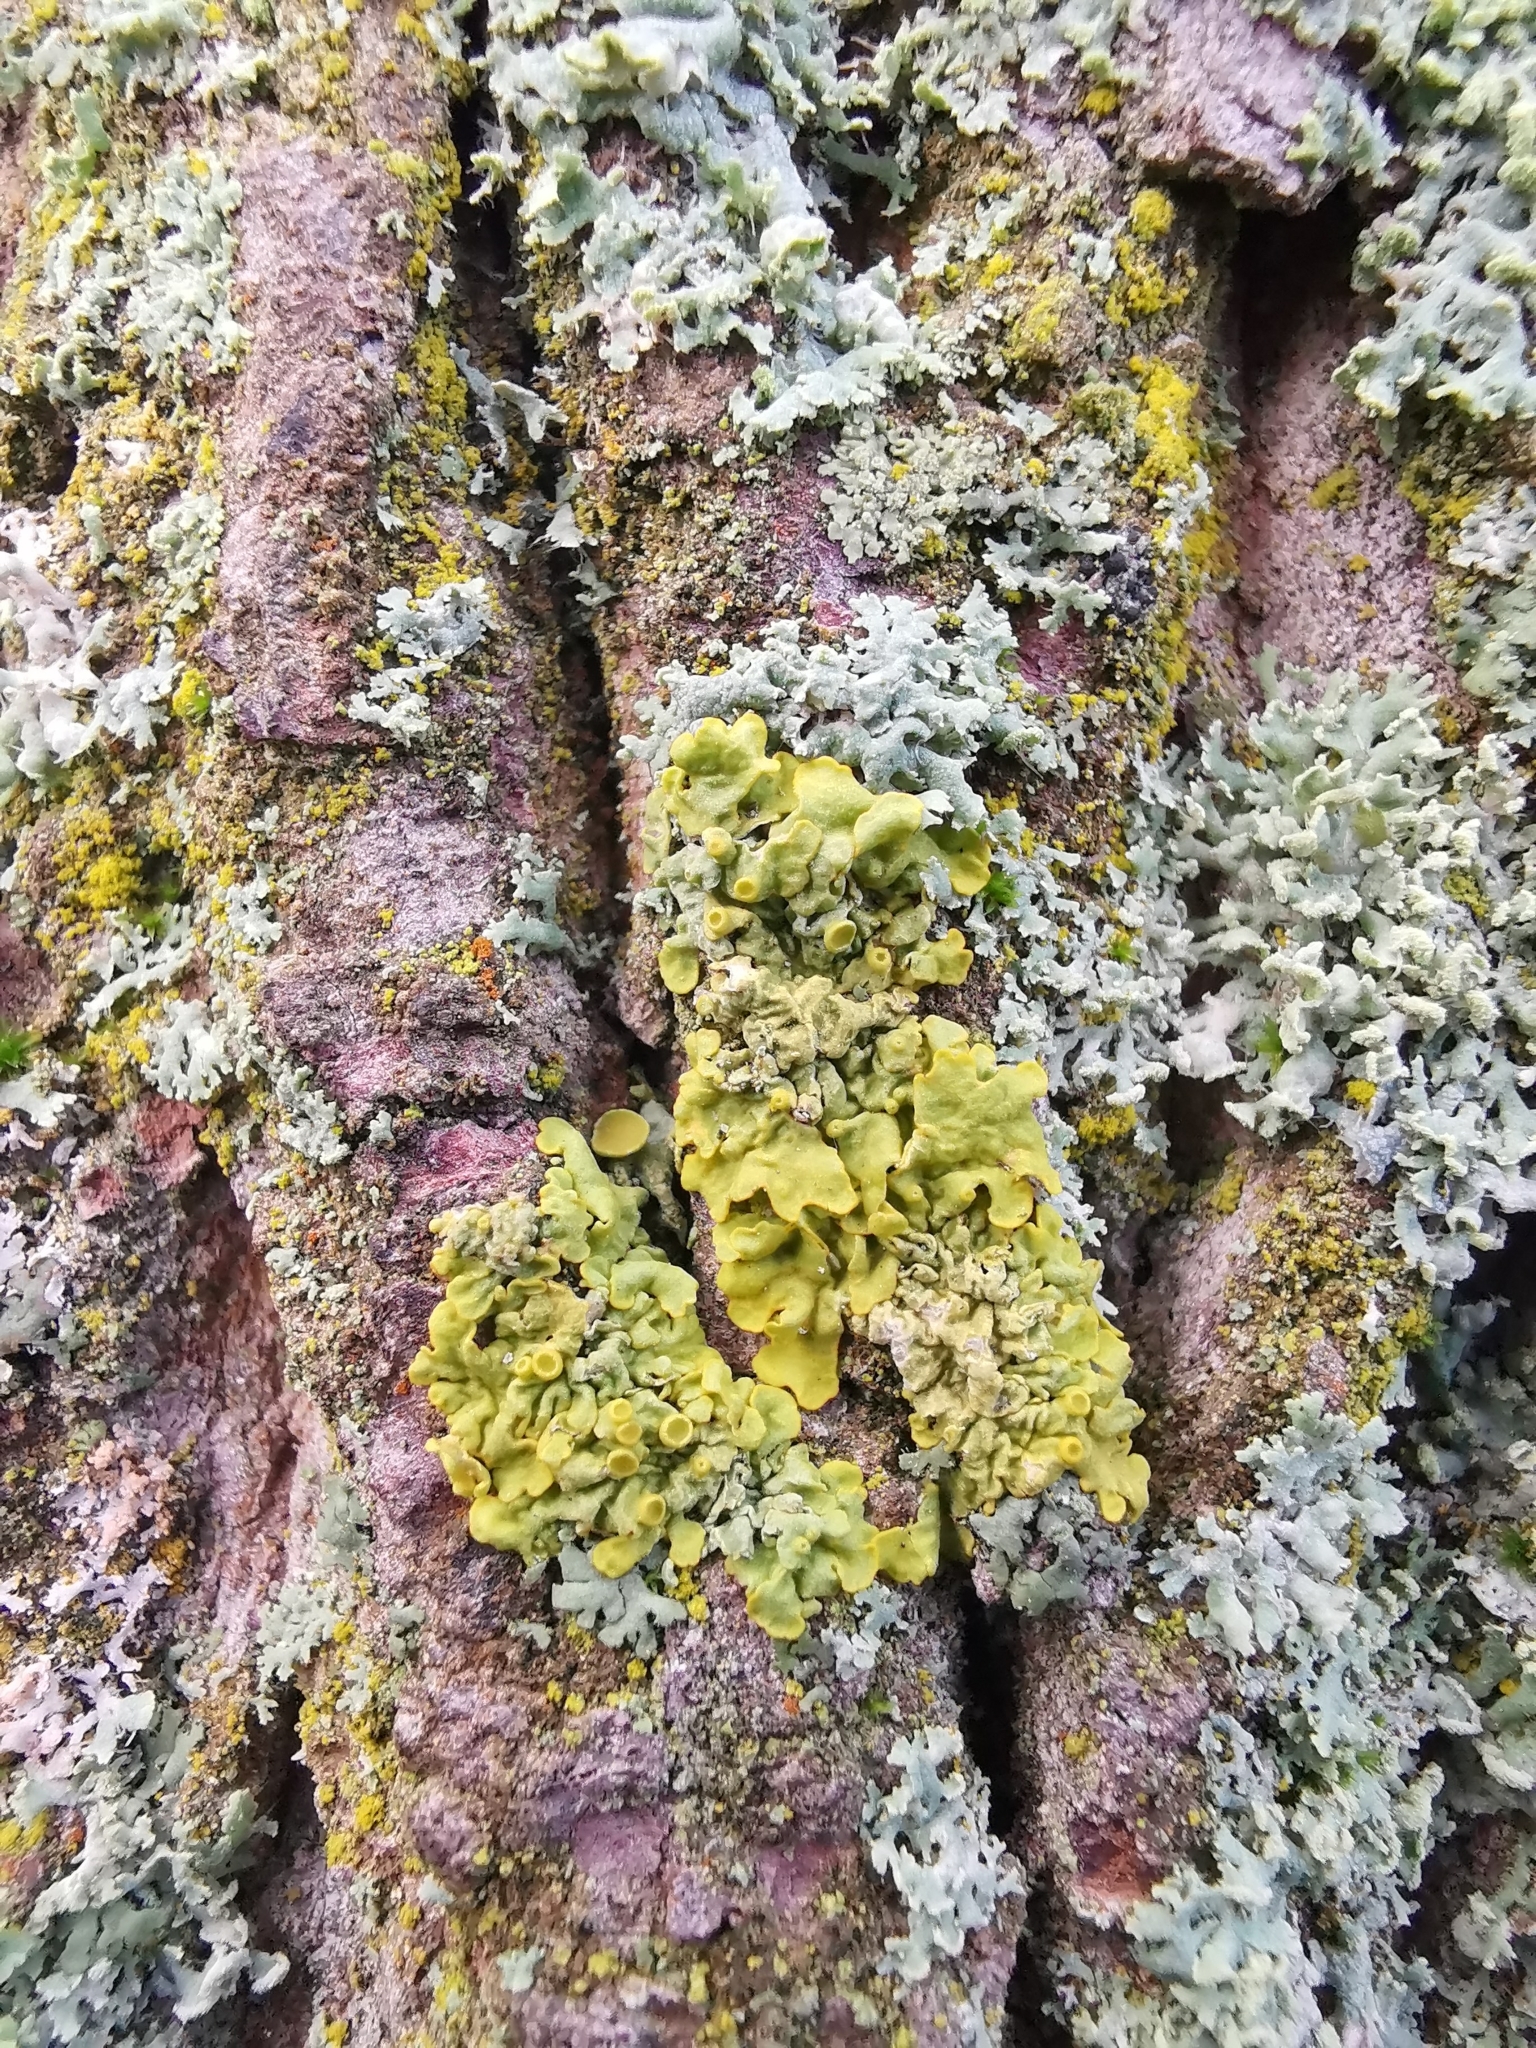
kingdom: Fungi
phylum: Ascomycota
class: Lecanoromycetes
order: Teloschistales
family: Teloschistaceae
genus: Xanthoria
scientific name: Xanthoria parietina
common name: Common orange lichen
